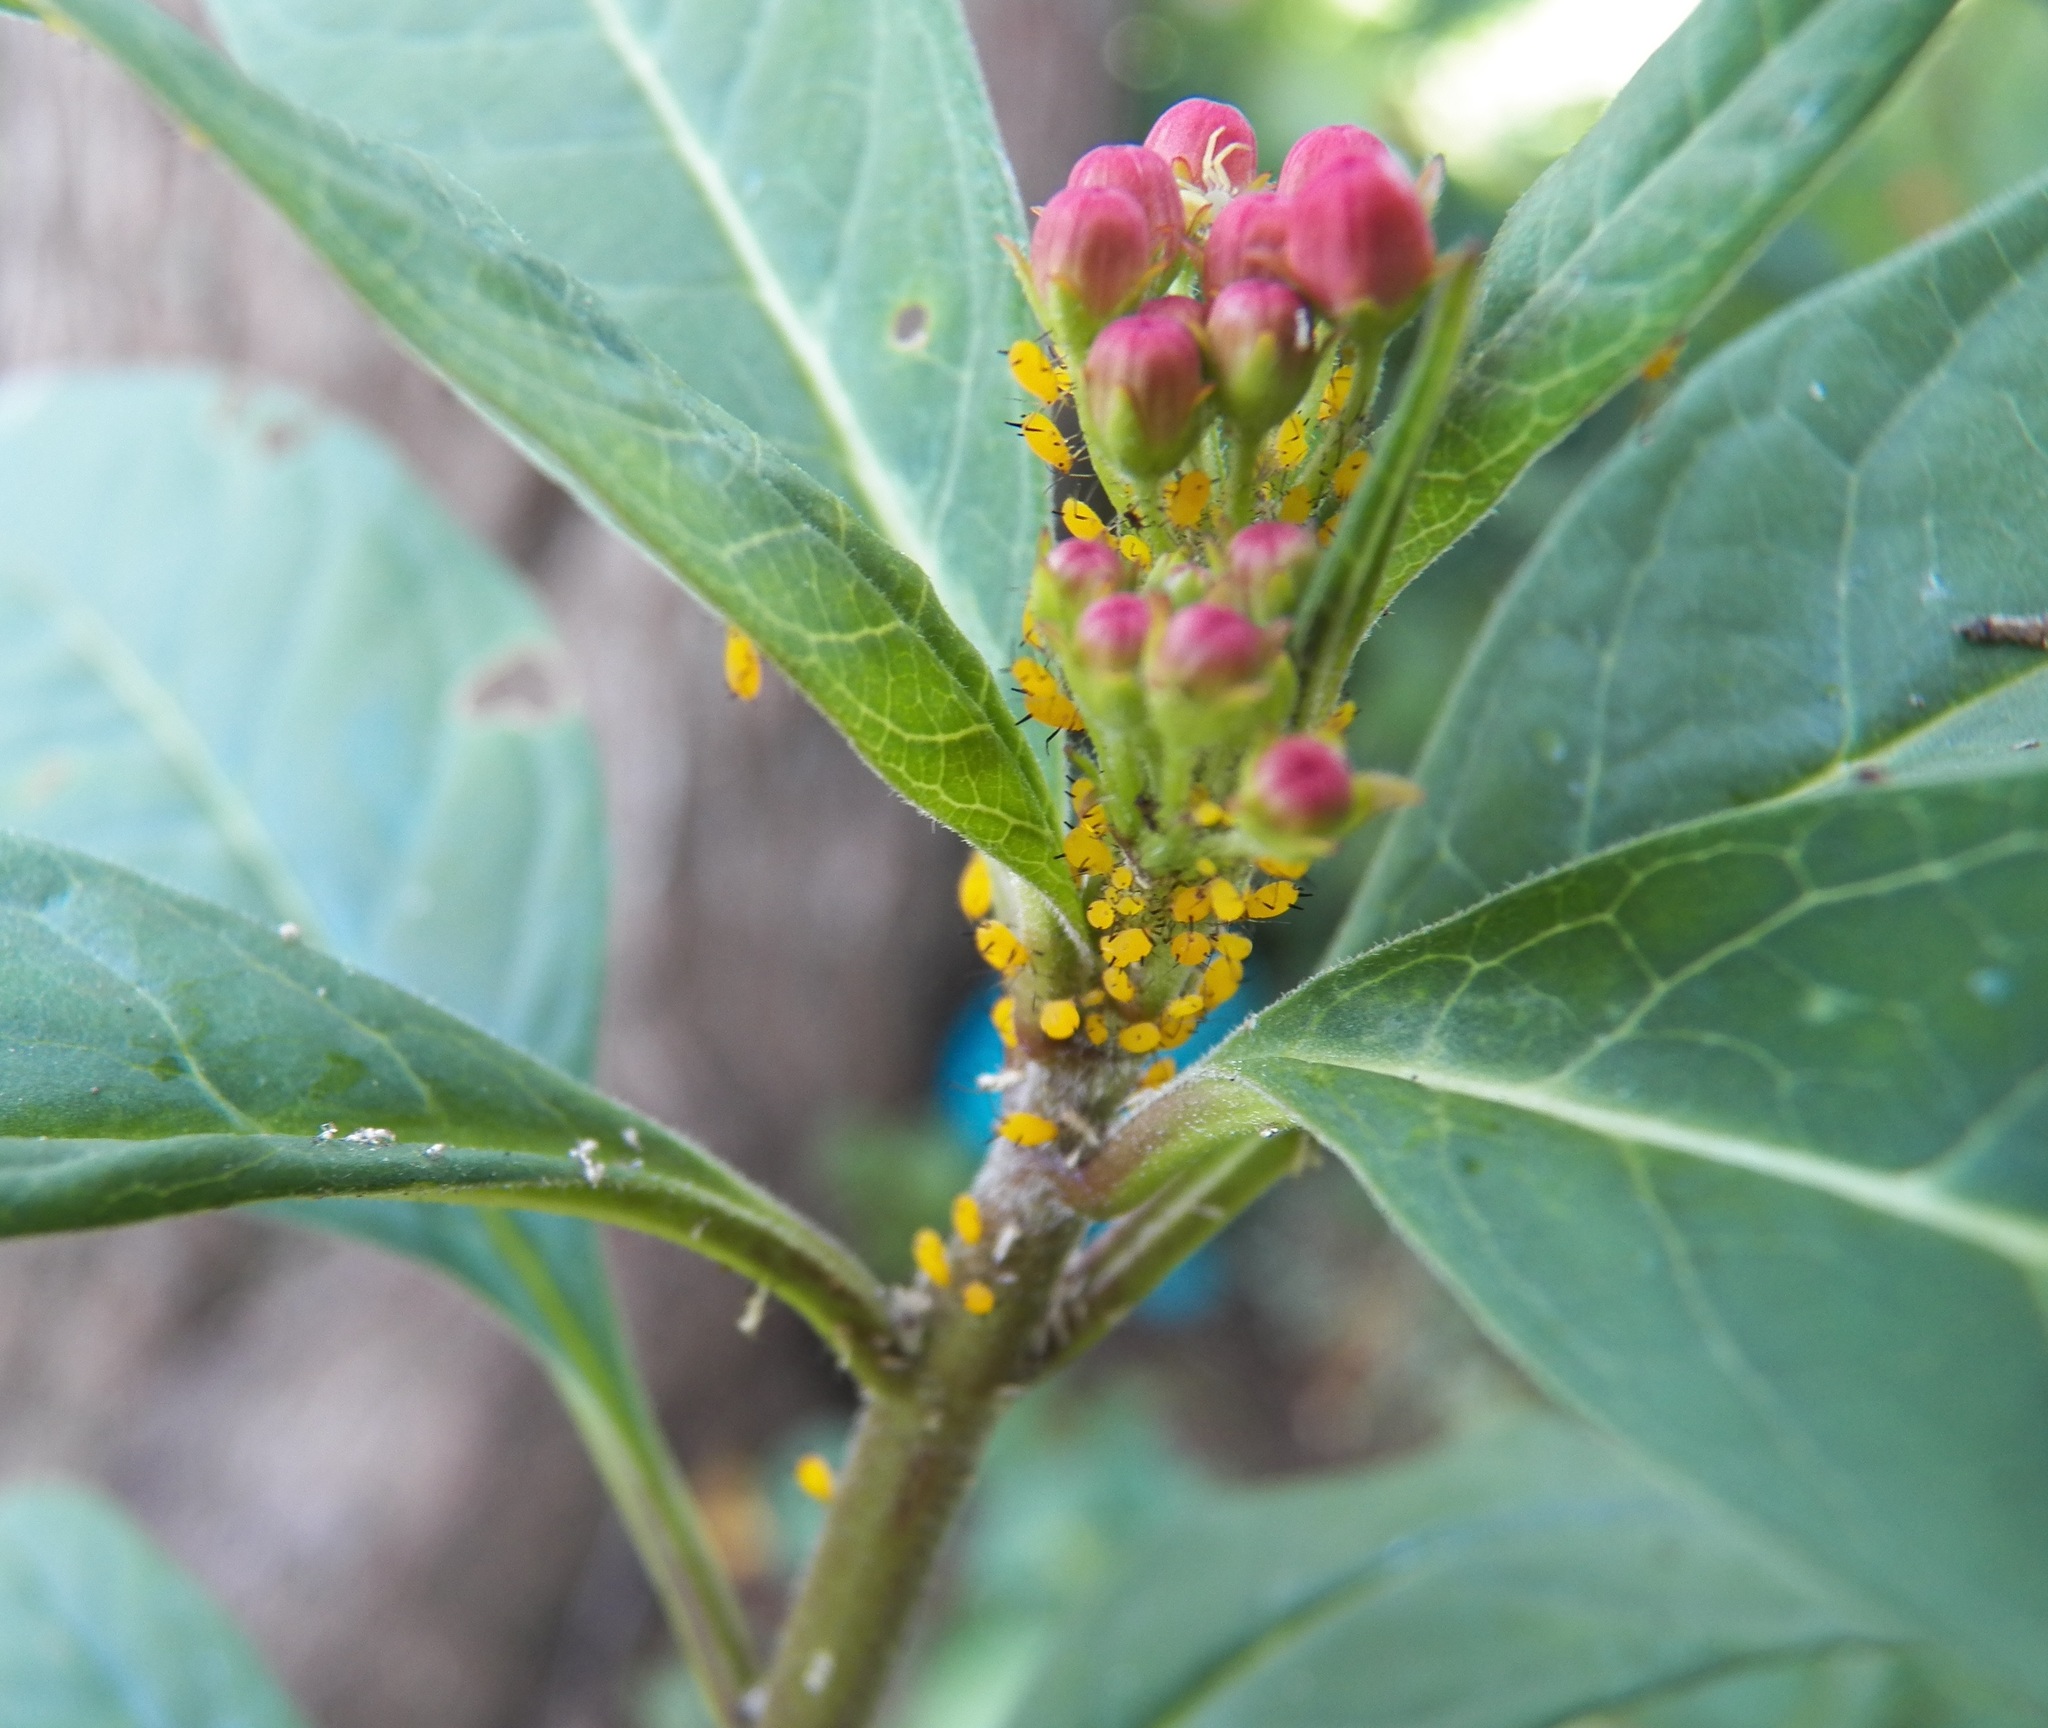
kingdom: Animalia
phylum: Arthropoda
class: Insecta
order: Hemiptera
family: Aphididae
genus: Aphis
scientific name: Aphis nerii
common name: Oleander aphid
